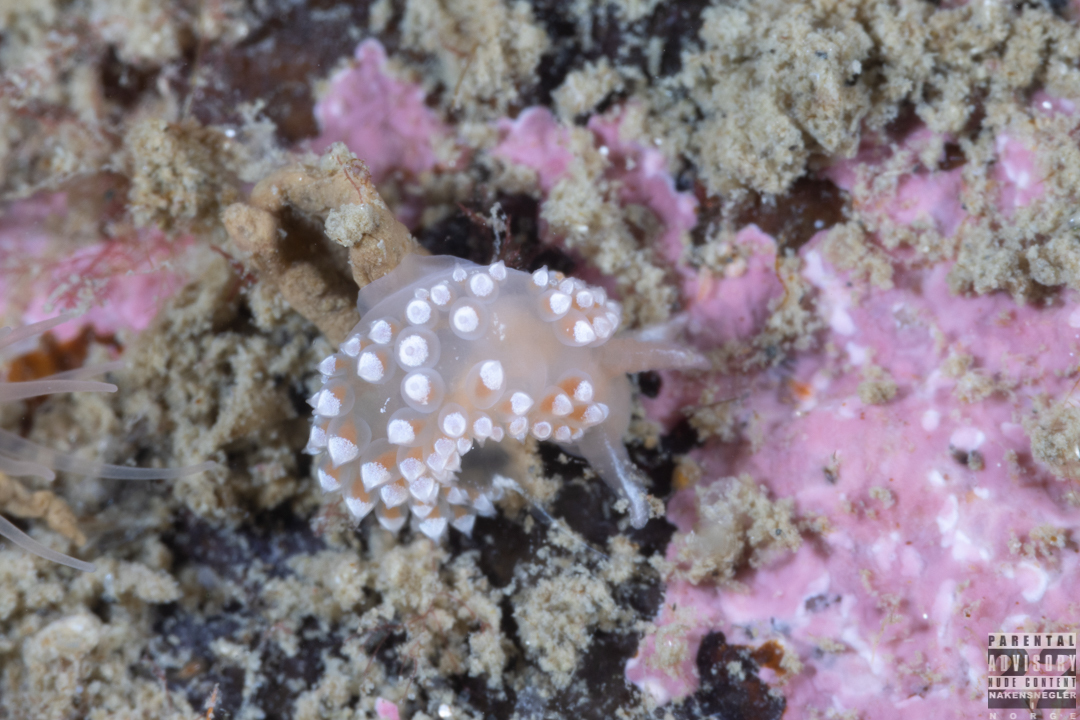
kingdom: Animalia
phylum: Mollusca
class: Gastropoda
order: Nudibranchia
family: Coryphellidae
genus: Coryphella
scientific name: Coryphella verrucosa
